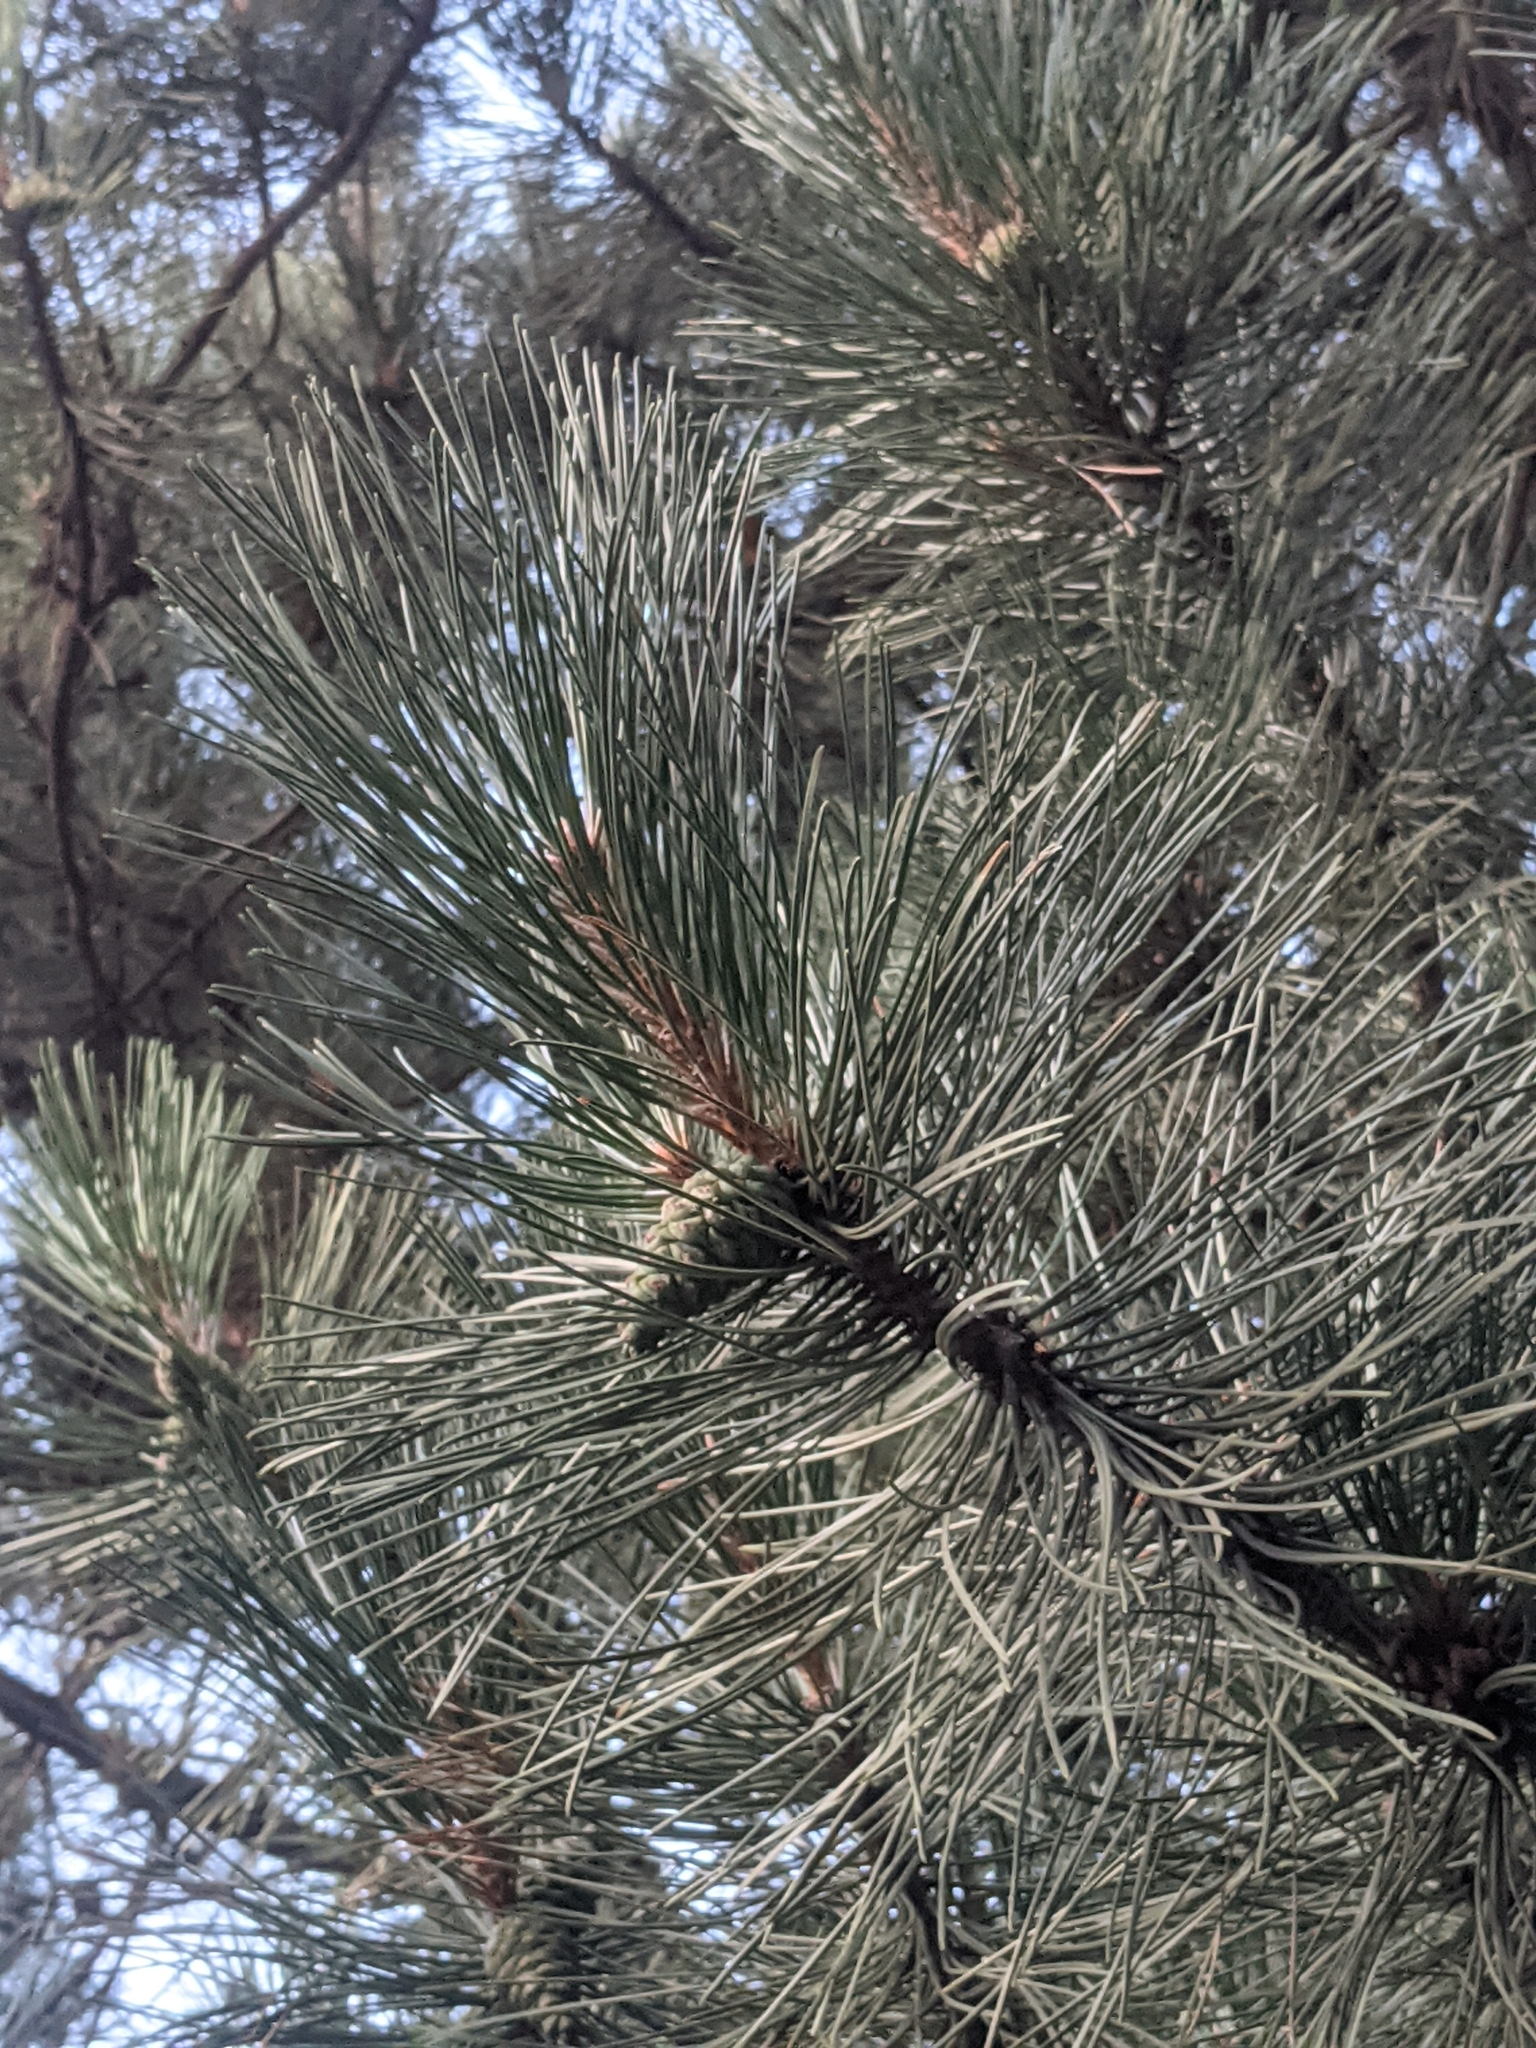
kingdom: Plantae
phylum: Tracheophyta
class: Pinopsida
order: Pinales
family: Pinaceae
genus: Pinus
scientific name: Pinus nigra
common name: Austrian pine
